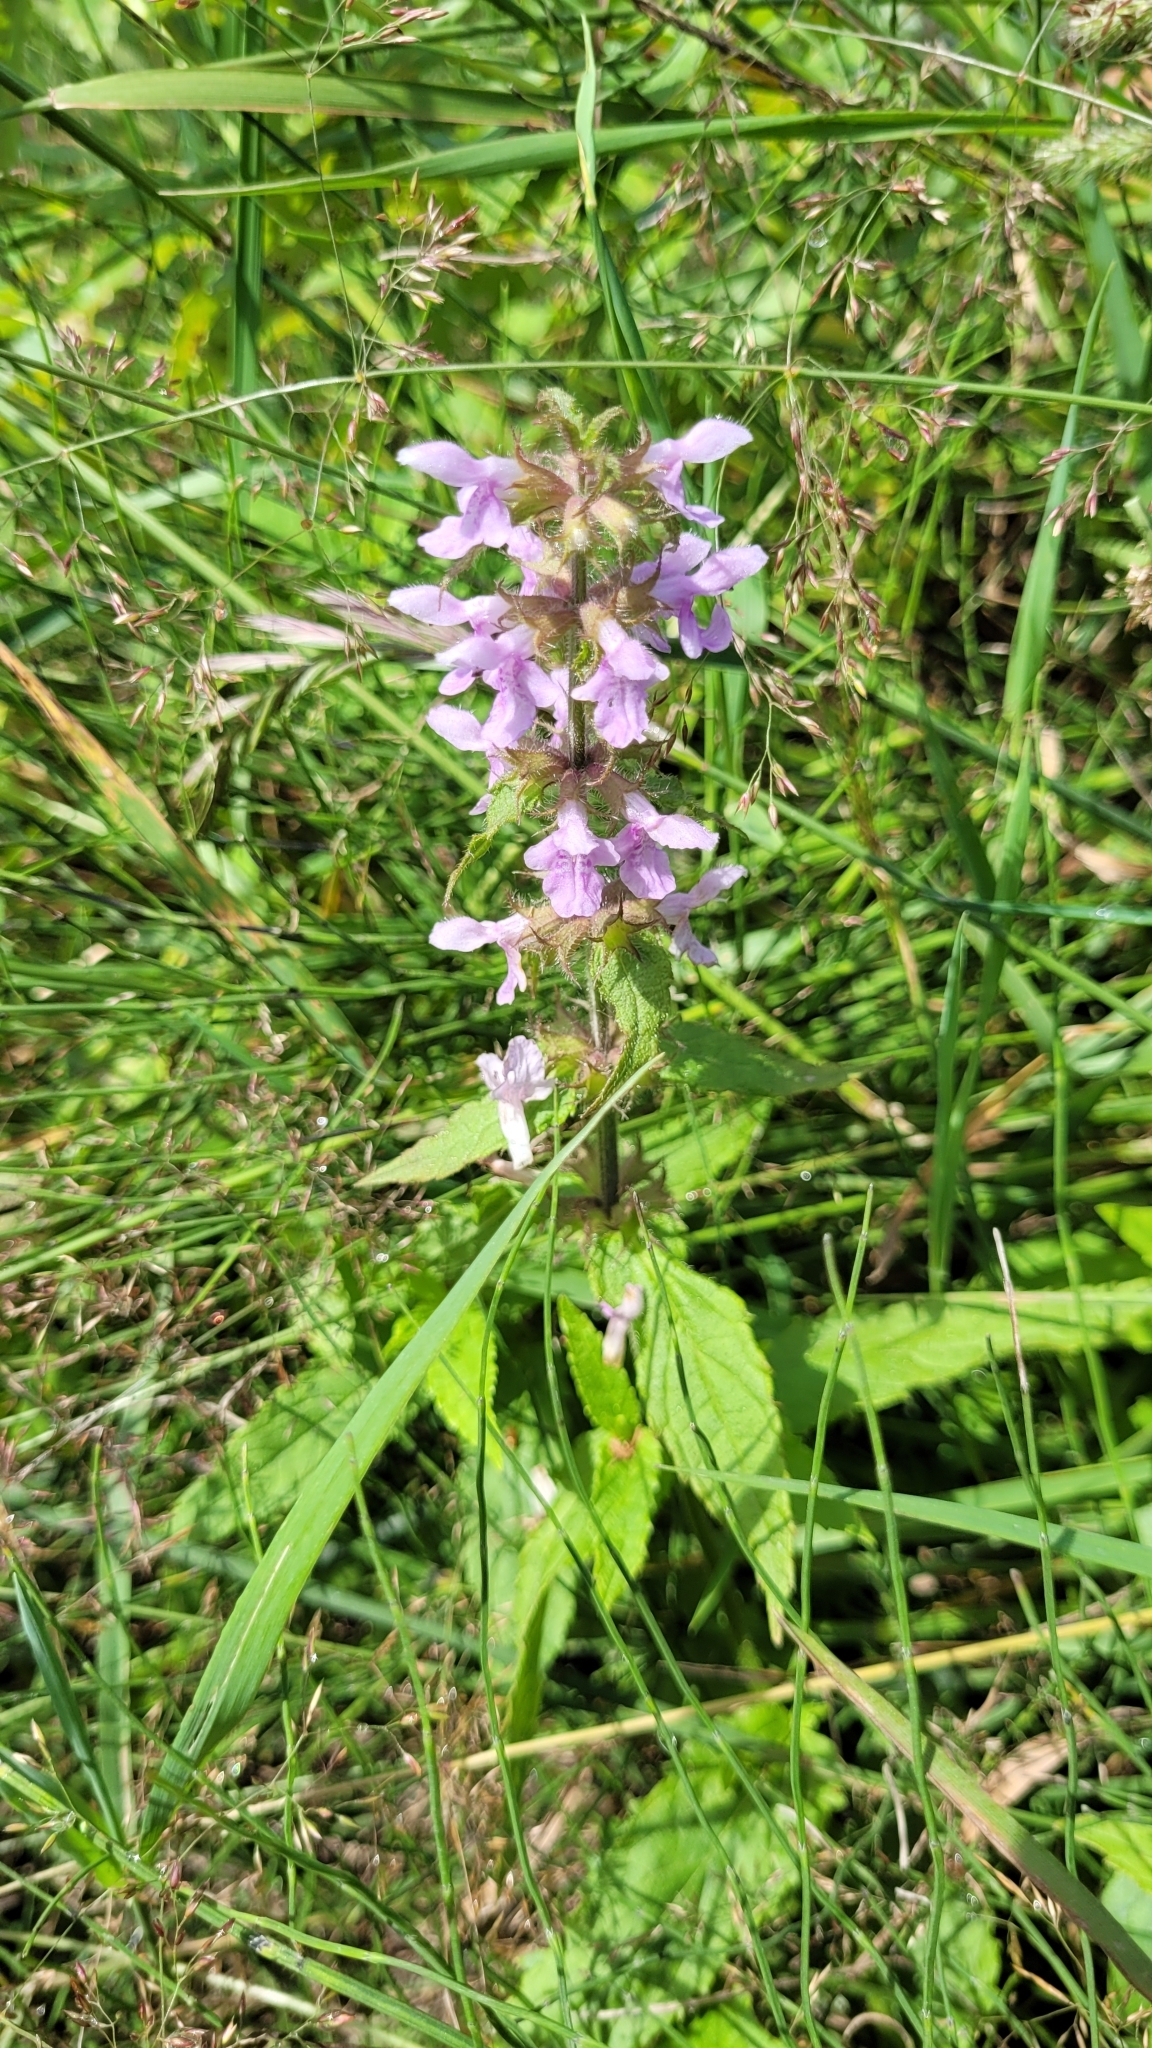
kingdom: Plantae
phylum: Tracheophyta
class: Magnoliopsida
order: Lamiales
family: Lamiaceae
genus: Stachys
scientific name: Stachys aspera
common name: Hyssopleaf hedgenettle
